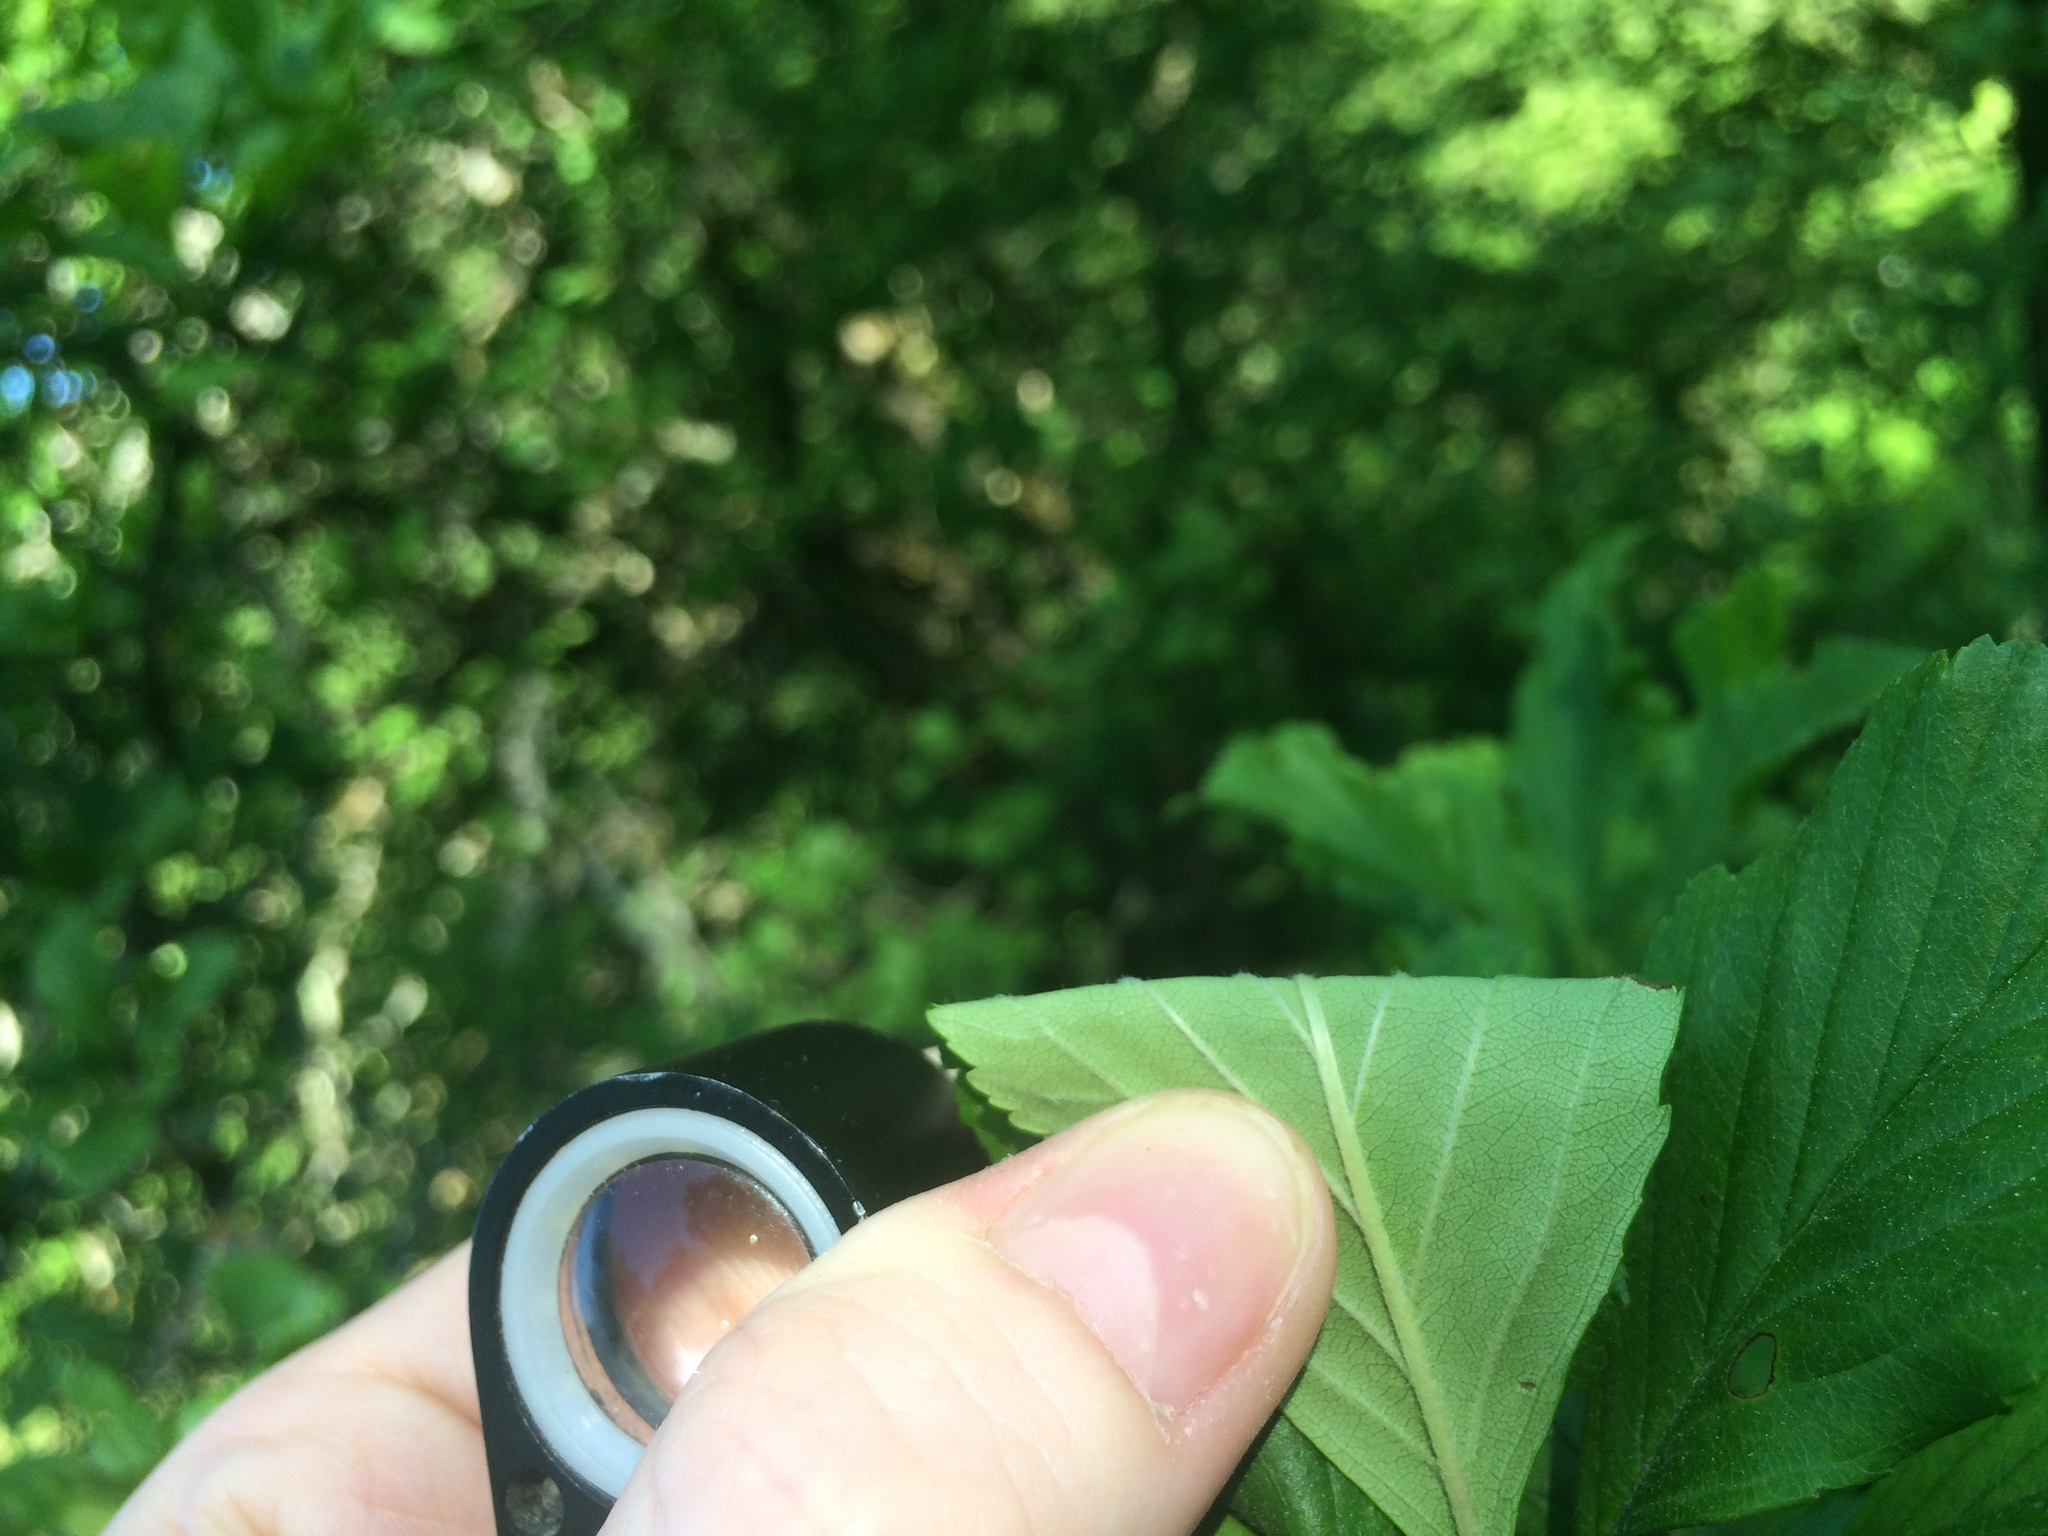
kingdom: Plantae
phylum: Tracheophyta
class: Magnoliopsida
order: Rosales
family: Rosaceae
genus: Crataegus
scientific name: Crataegus punctata
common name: Dotted hawthorn
